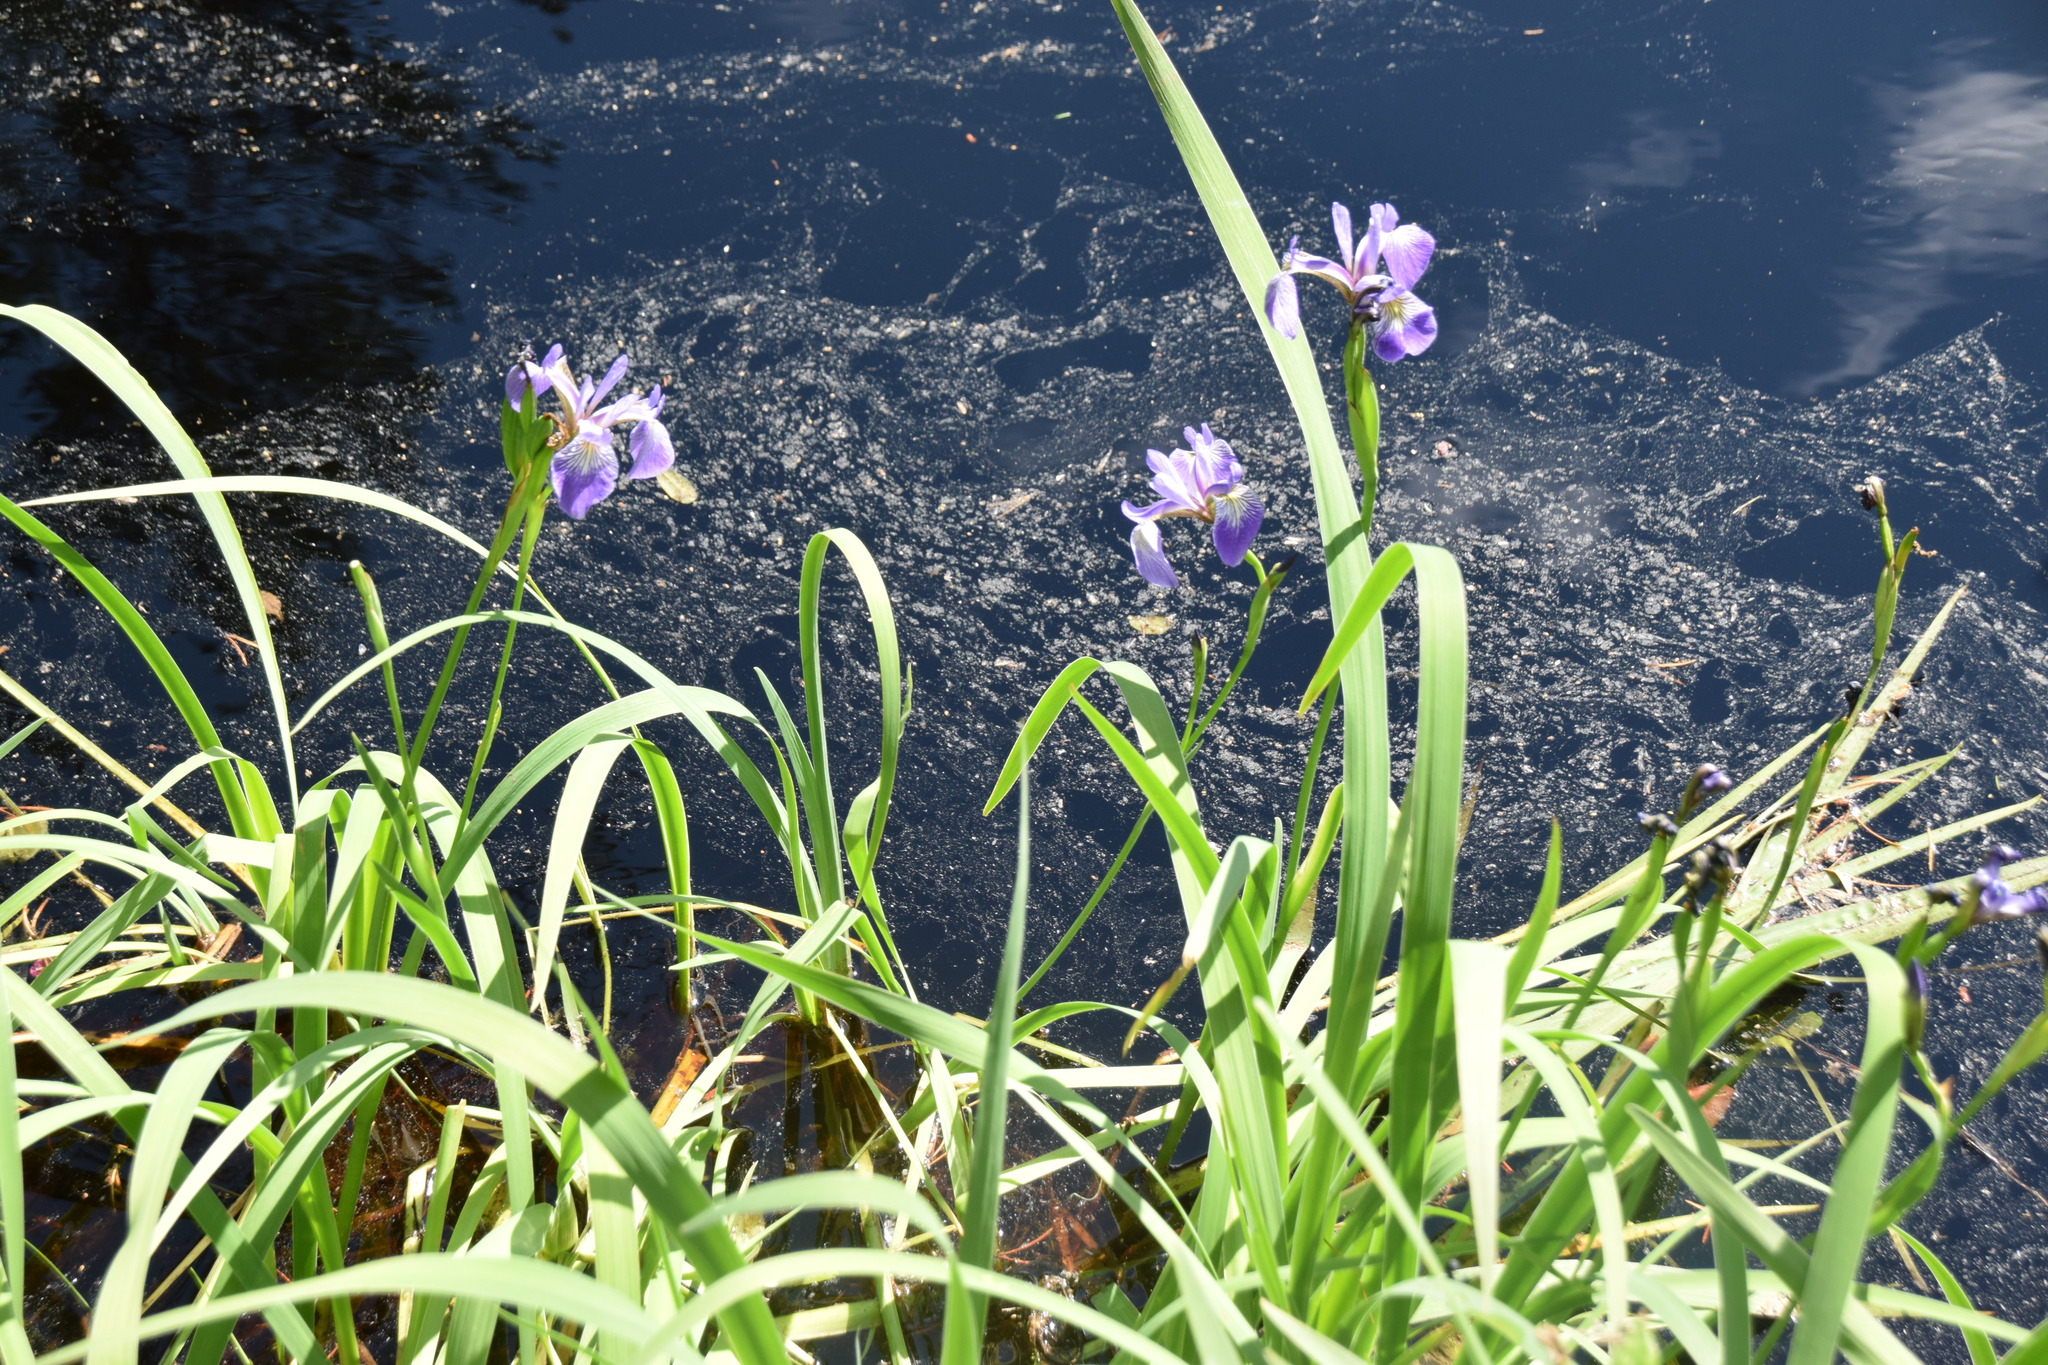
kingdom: Plantae
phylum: Tracheophyta
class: Liliopsida
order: Asparagales
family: Iridaceae
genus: Iris
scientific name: Iris versicolor
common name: Purple iris
